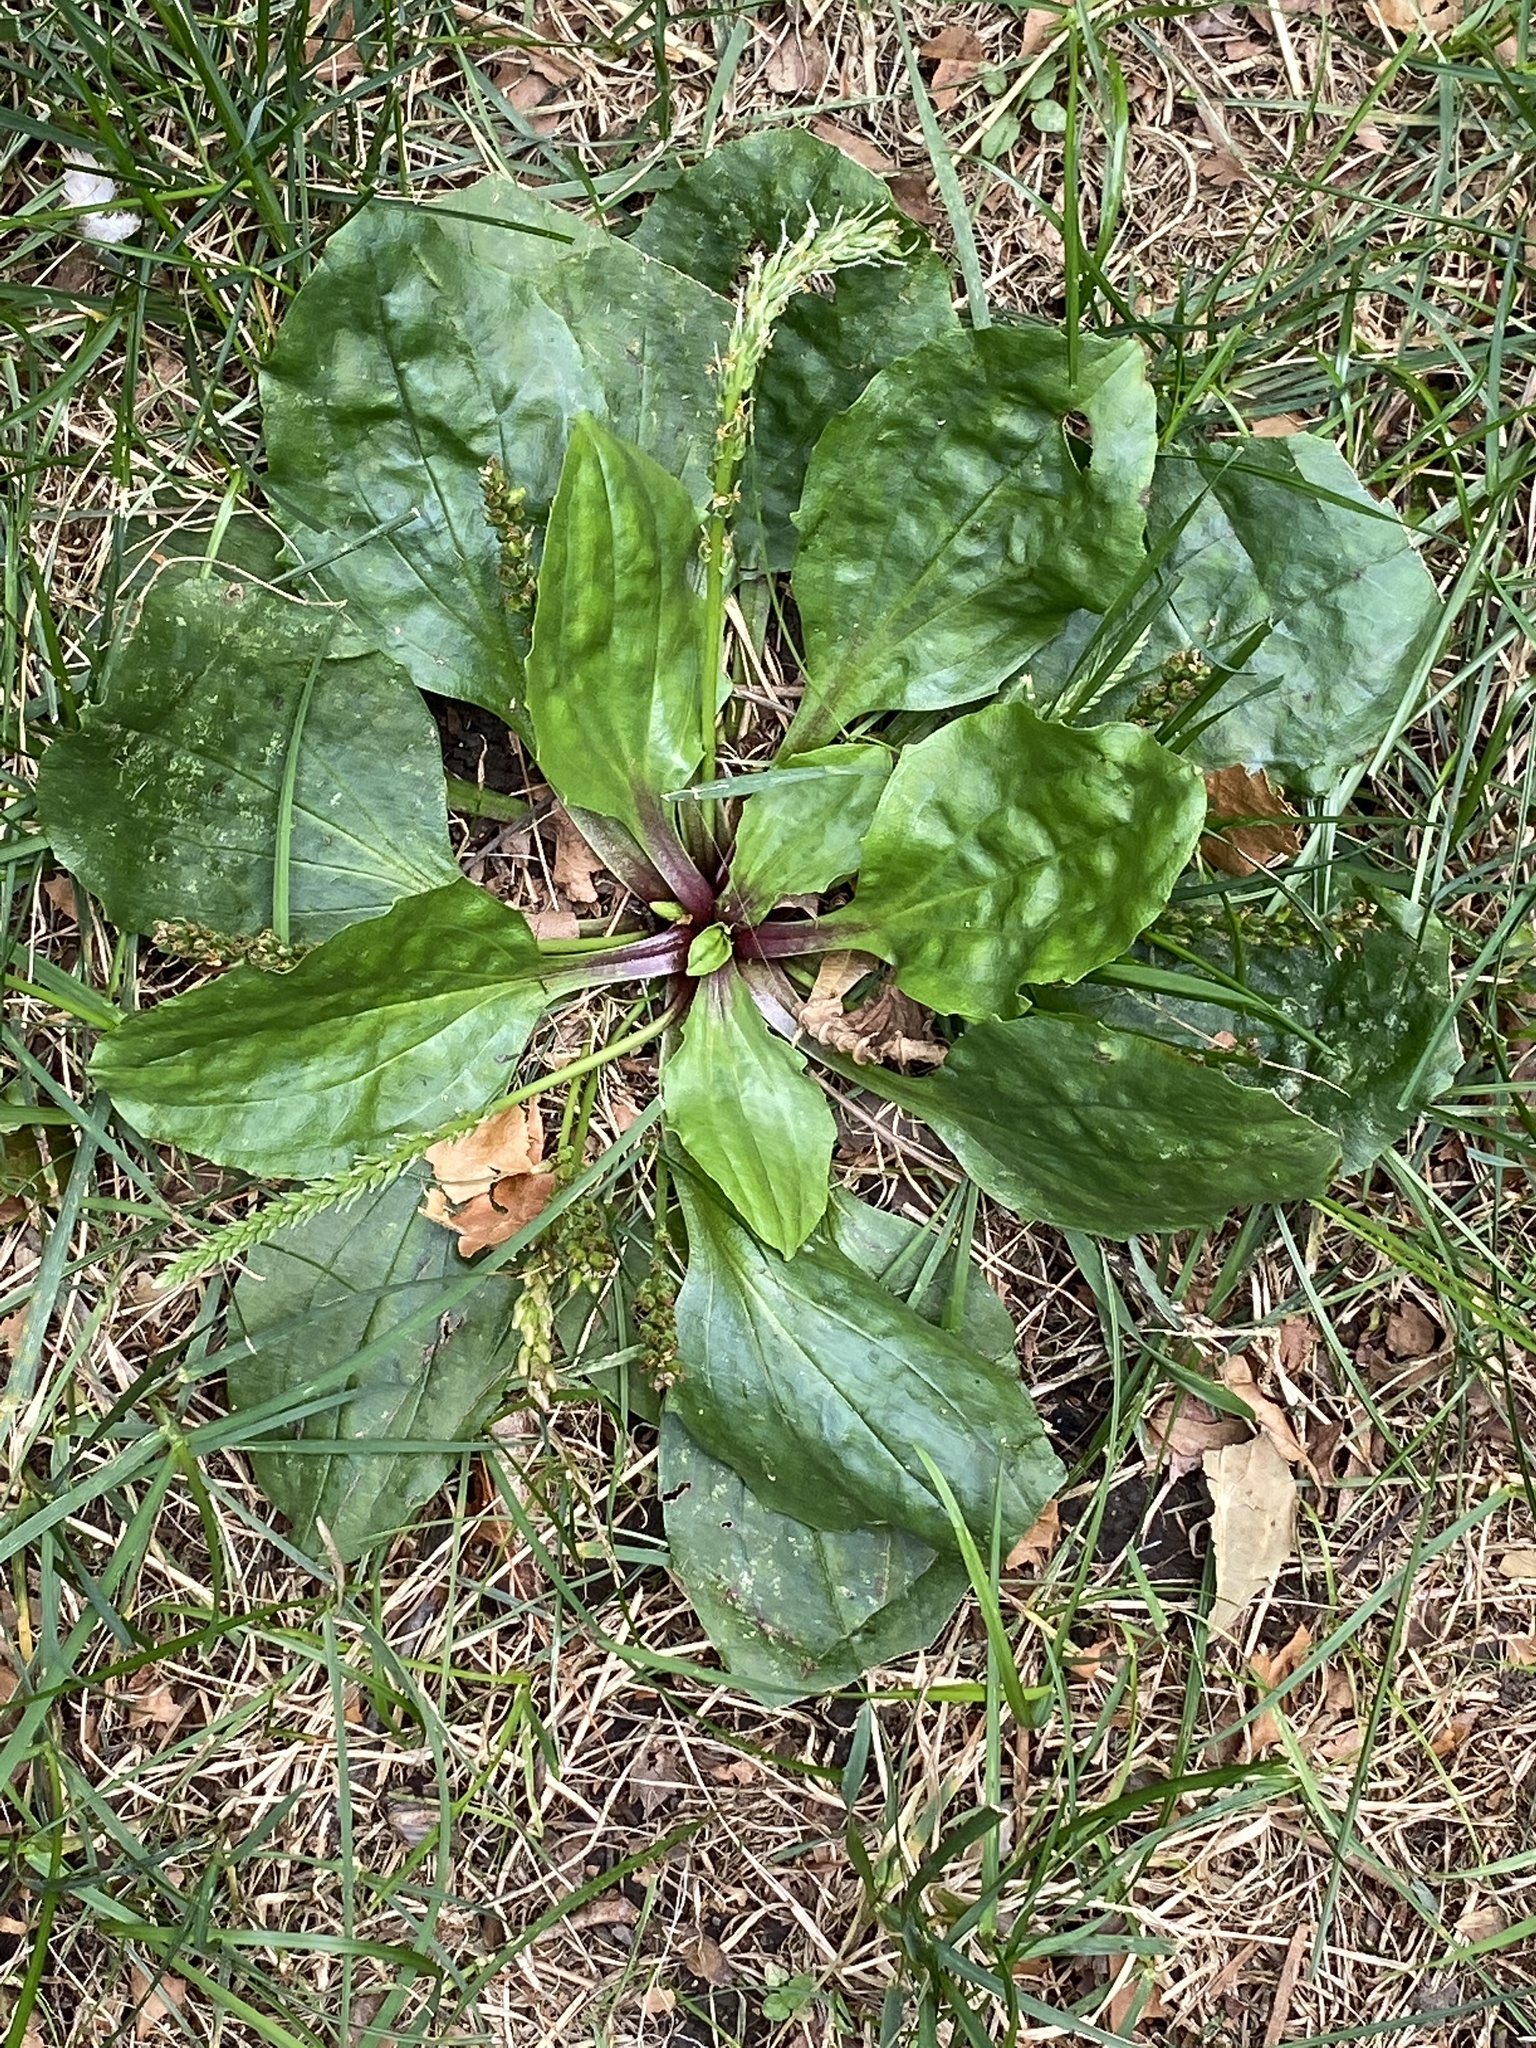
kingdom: Plantae
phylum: Tracheophyta
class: Magnoliopsida
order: Lamiales
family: Plantaginaceae
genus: Plantago
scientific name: Plantago rugelii
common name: American plantain
